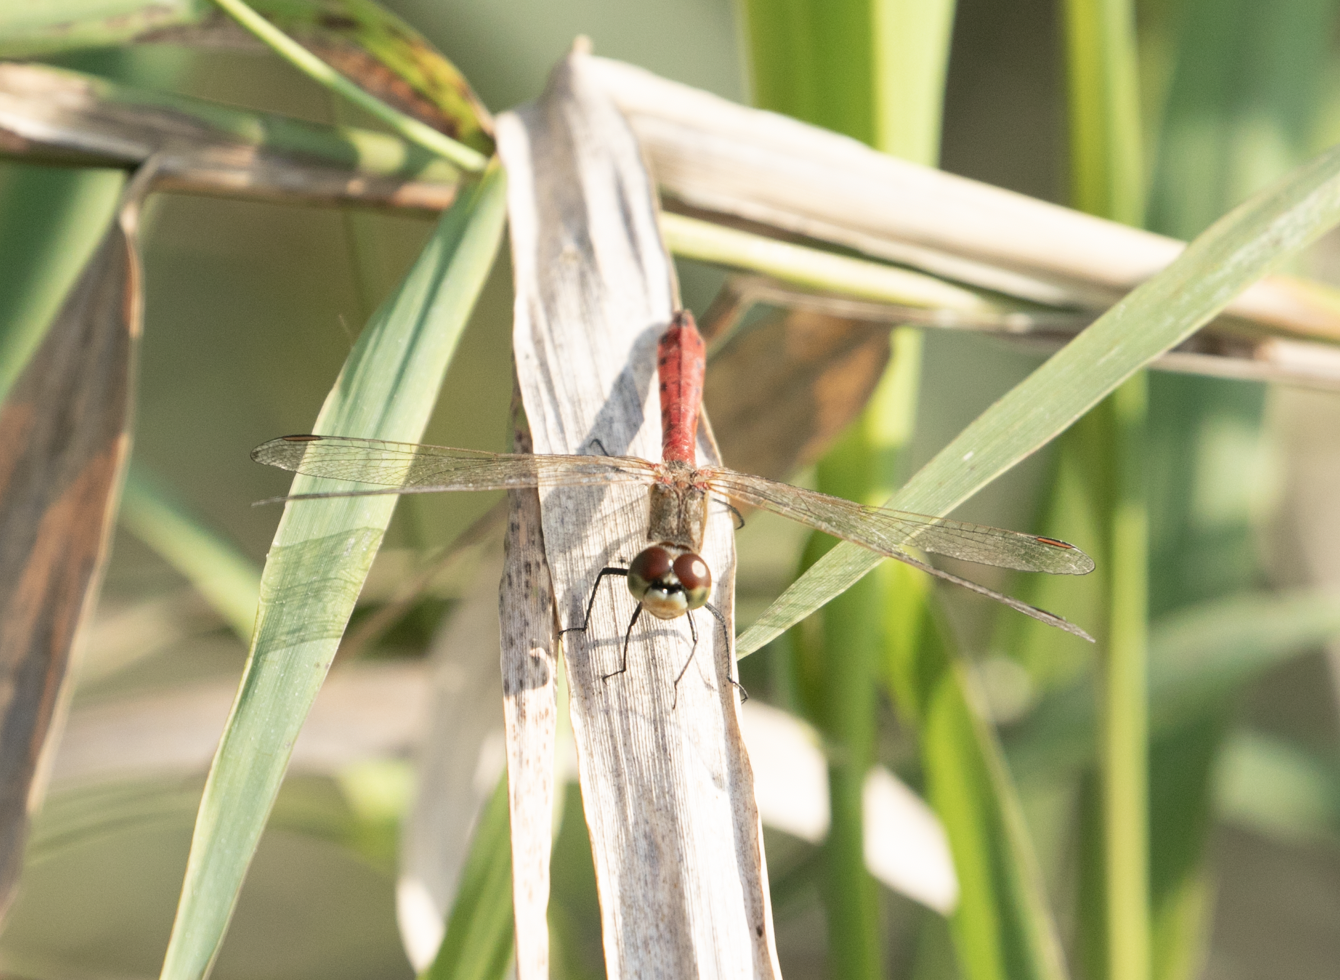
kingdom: Animalia
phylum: Arthropoda
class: Insecta
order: Odonata
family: Libellulidae
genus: Sympetrum
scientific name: Sympetrum depressiusculum
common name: Spotted darter
